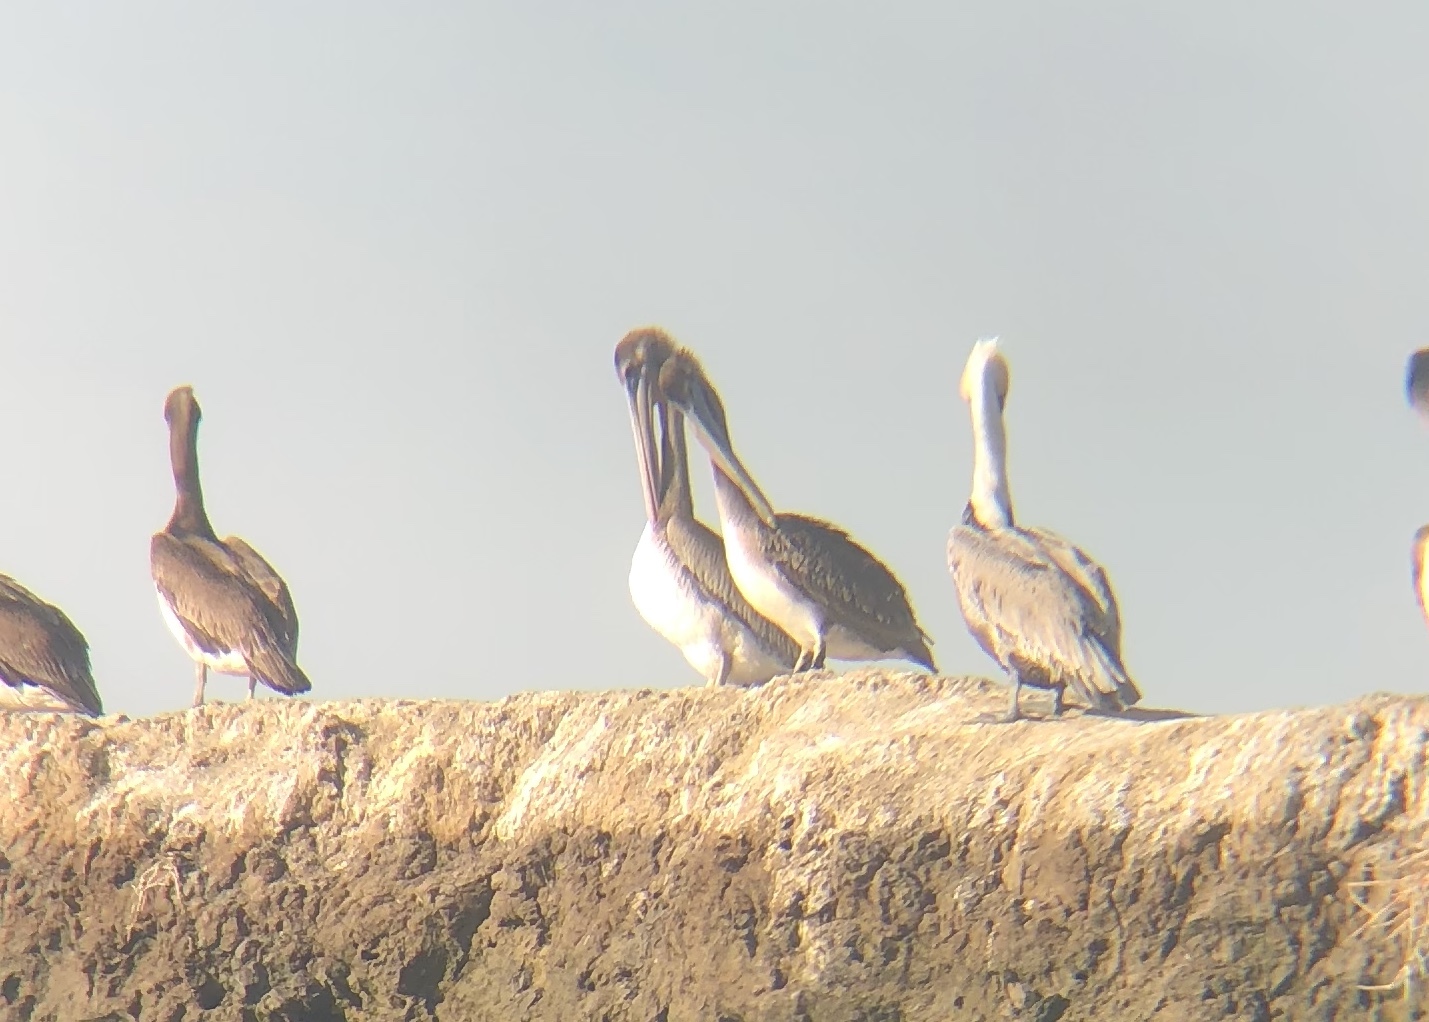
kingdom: Animalia
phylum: Chordata
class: Aves
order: Pelecaniformes
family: Pelecanidae
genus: Pelecanus
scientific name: Pelecanus occidentalis
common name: Brown pelican
